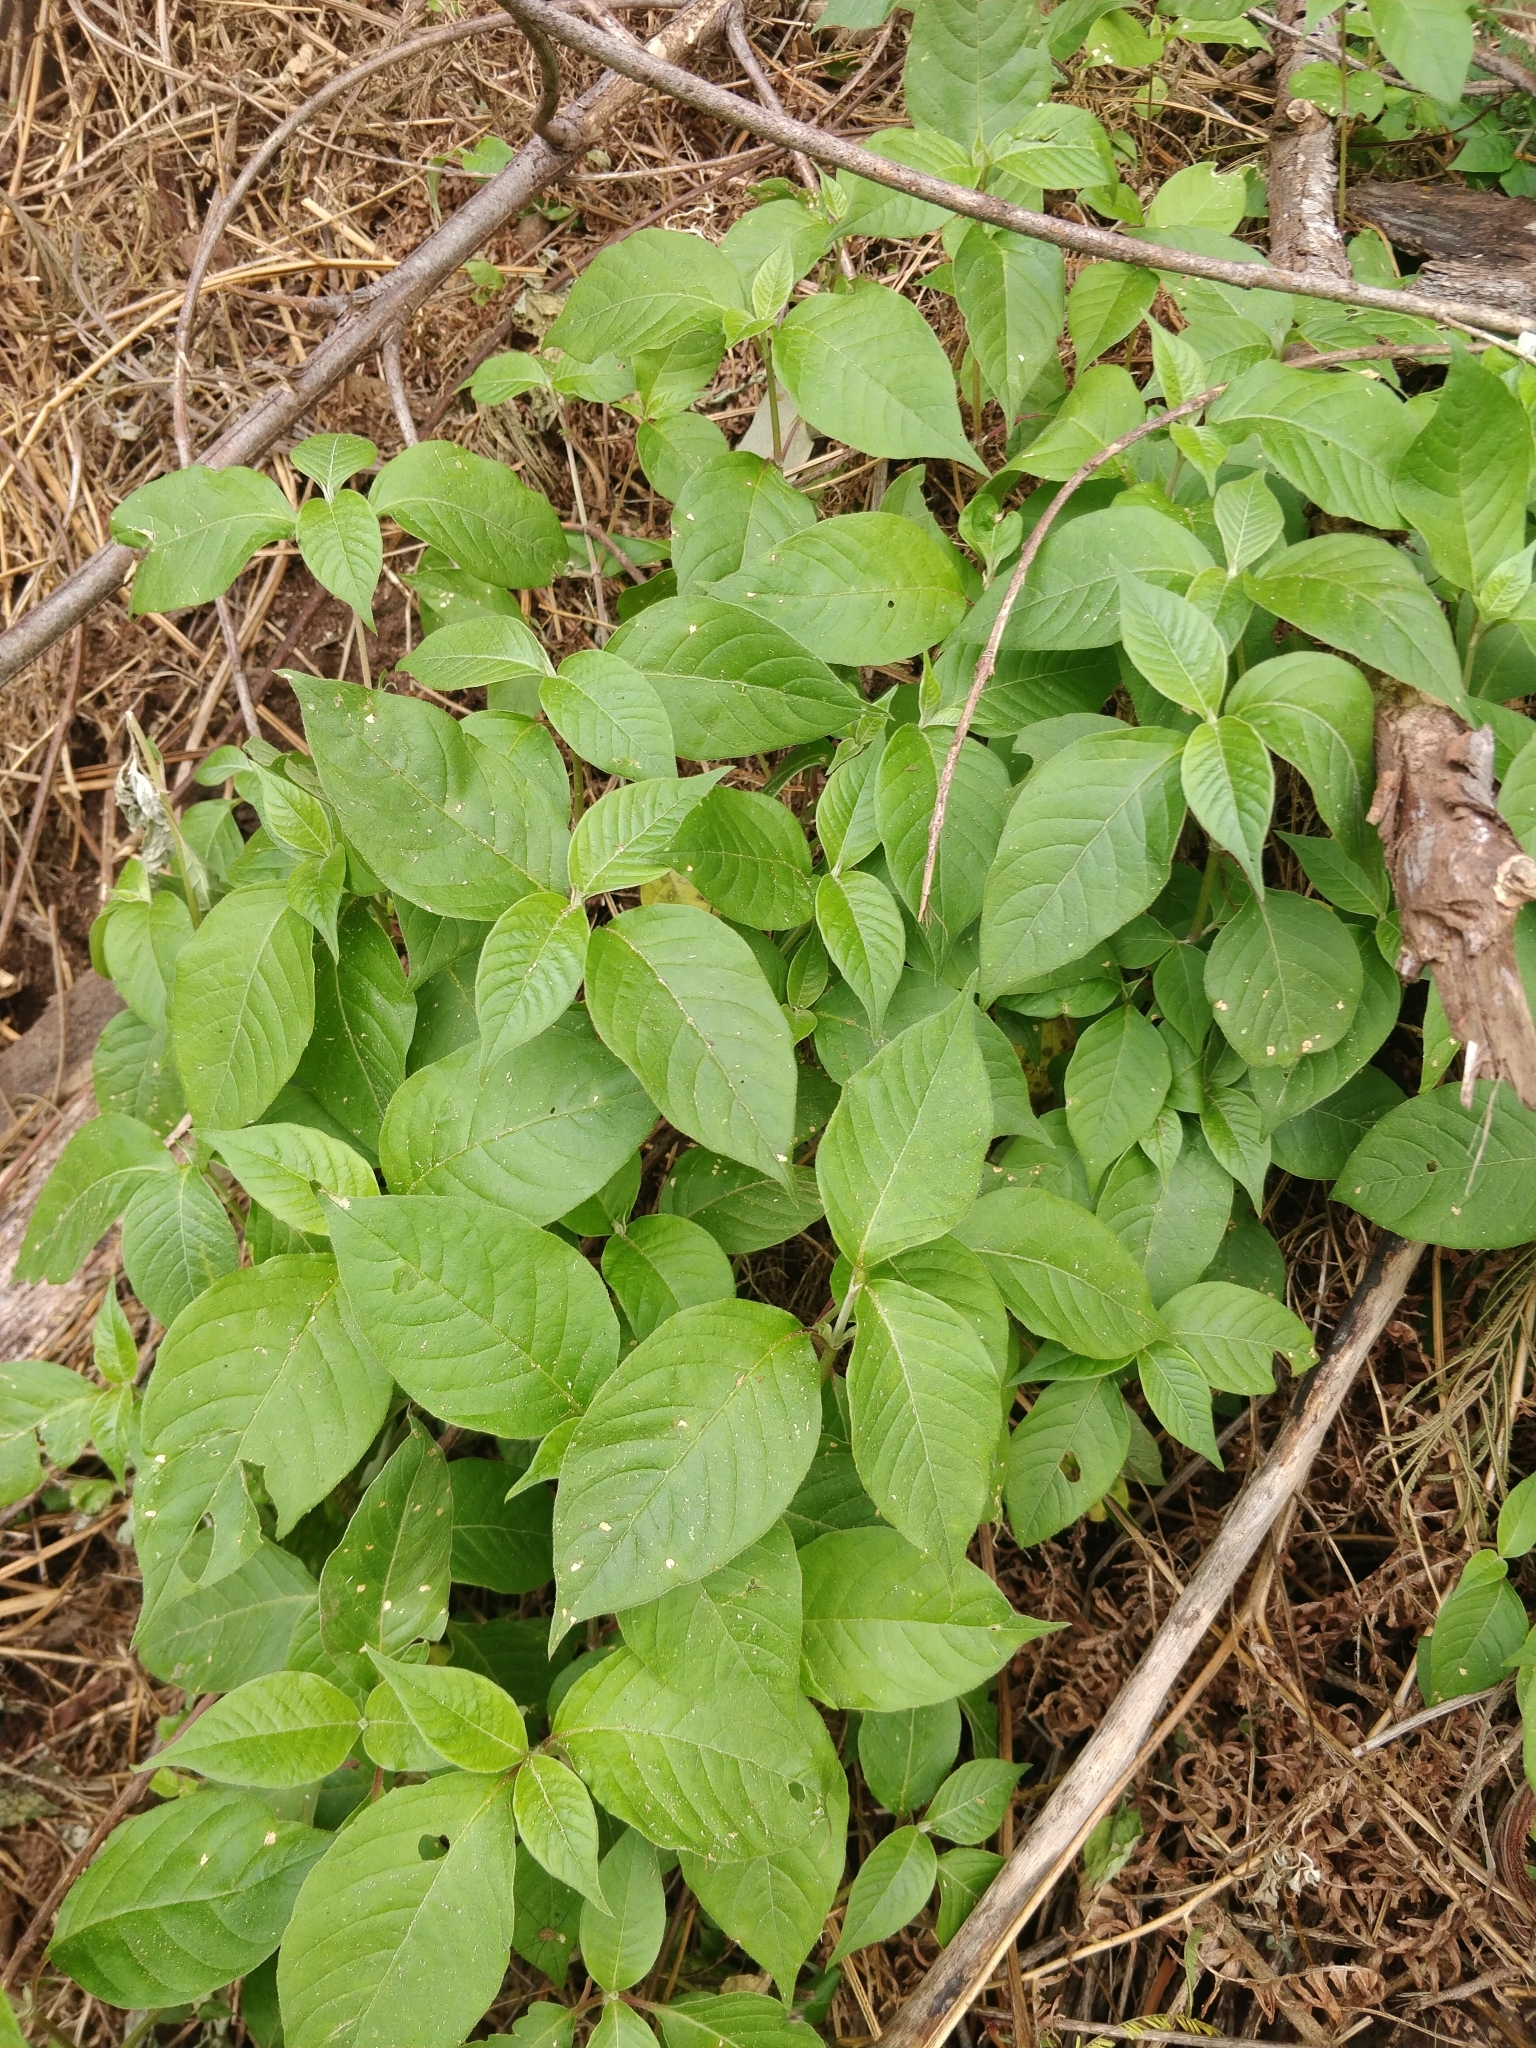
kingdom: Plantae
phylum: Tracheophyta
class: Magnoliopsida
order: Caryophyllales
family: Amaranthaceae
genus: Achyranthes
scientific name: Achyranthes aspera
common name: Devil's horsewhip
